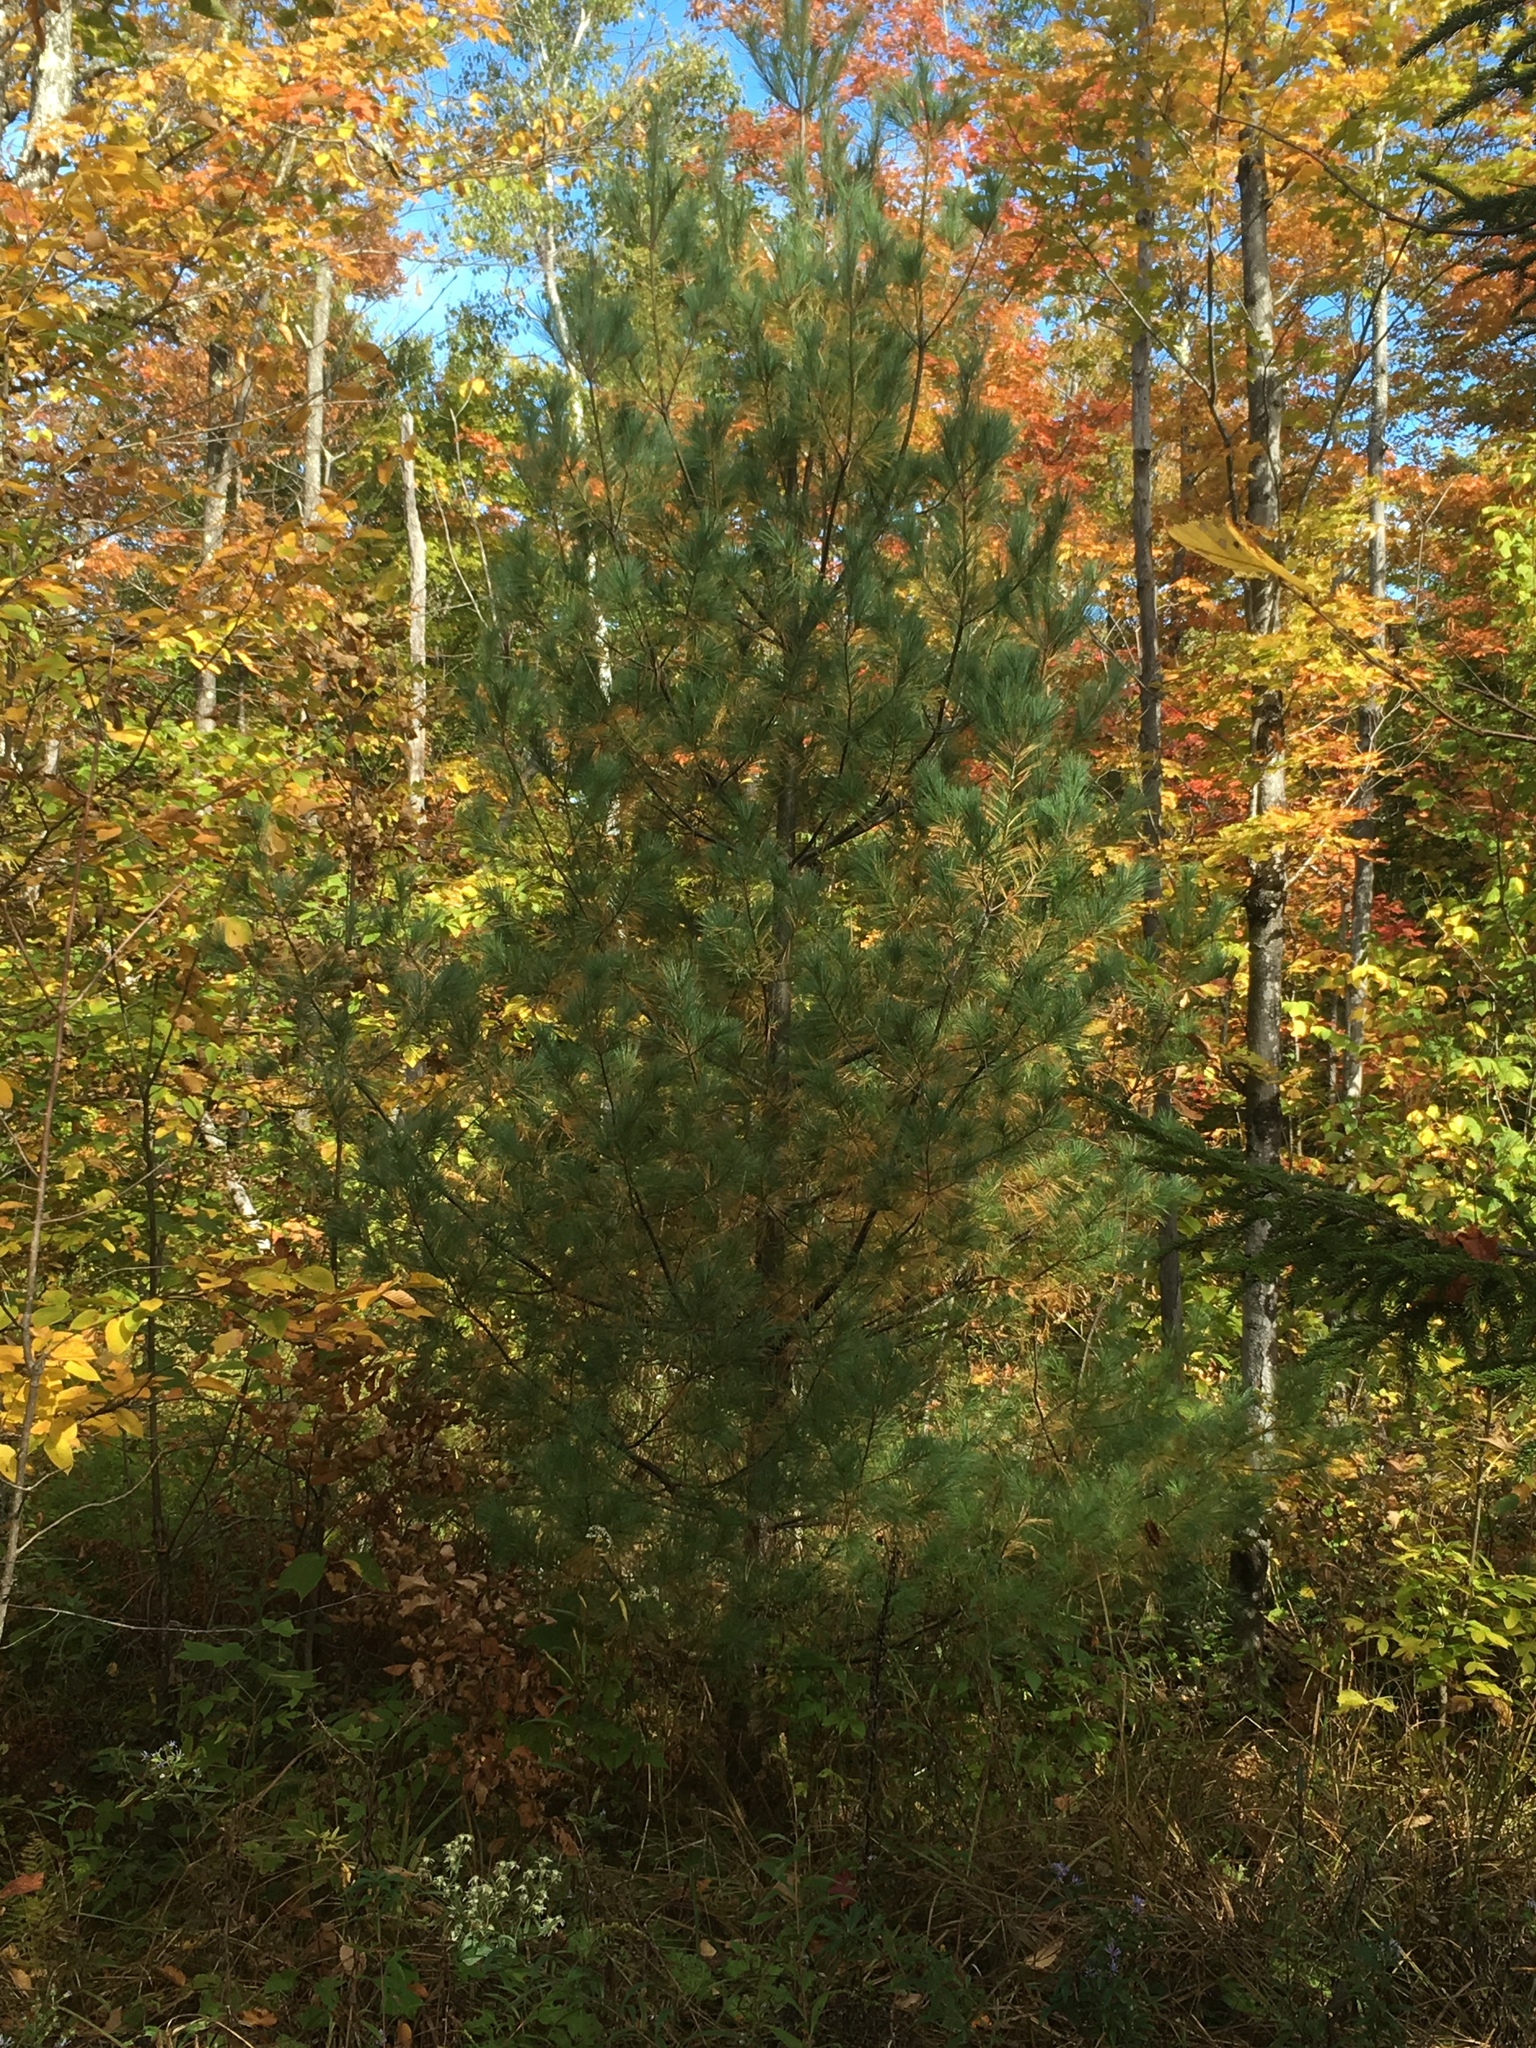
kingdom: Plantae
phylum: Tracheophyta
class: Pinopsida
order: Pinales
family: Pinaceae
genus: Pinus
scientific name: Pinus strobus
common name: Weymouth pine
